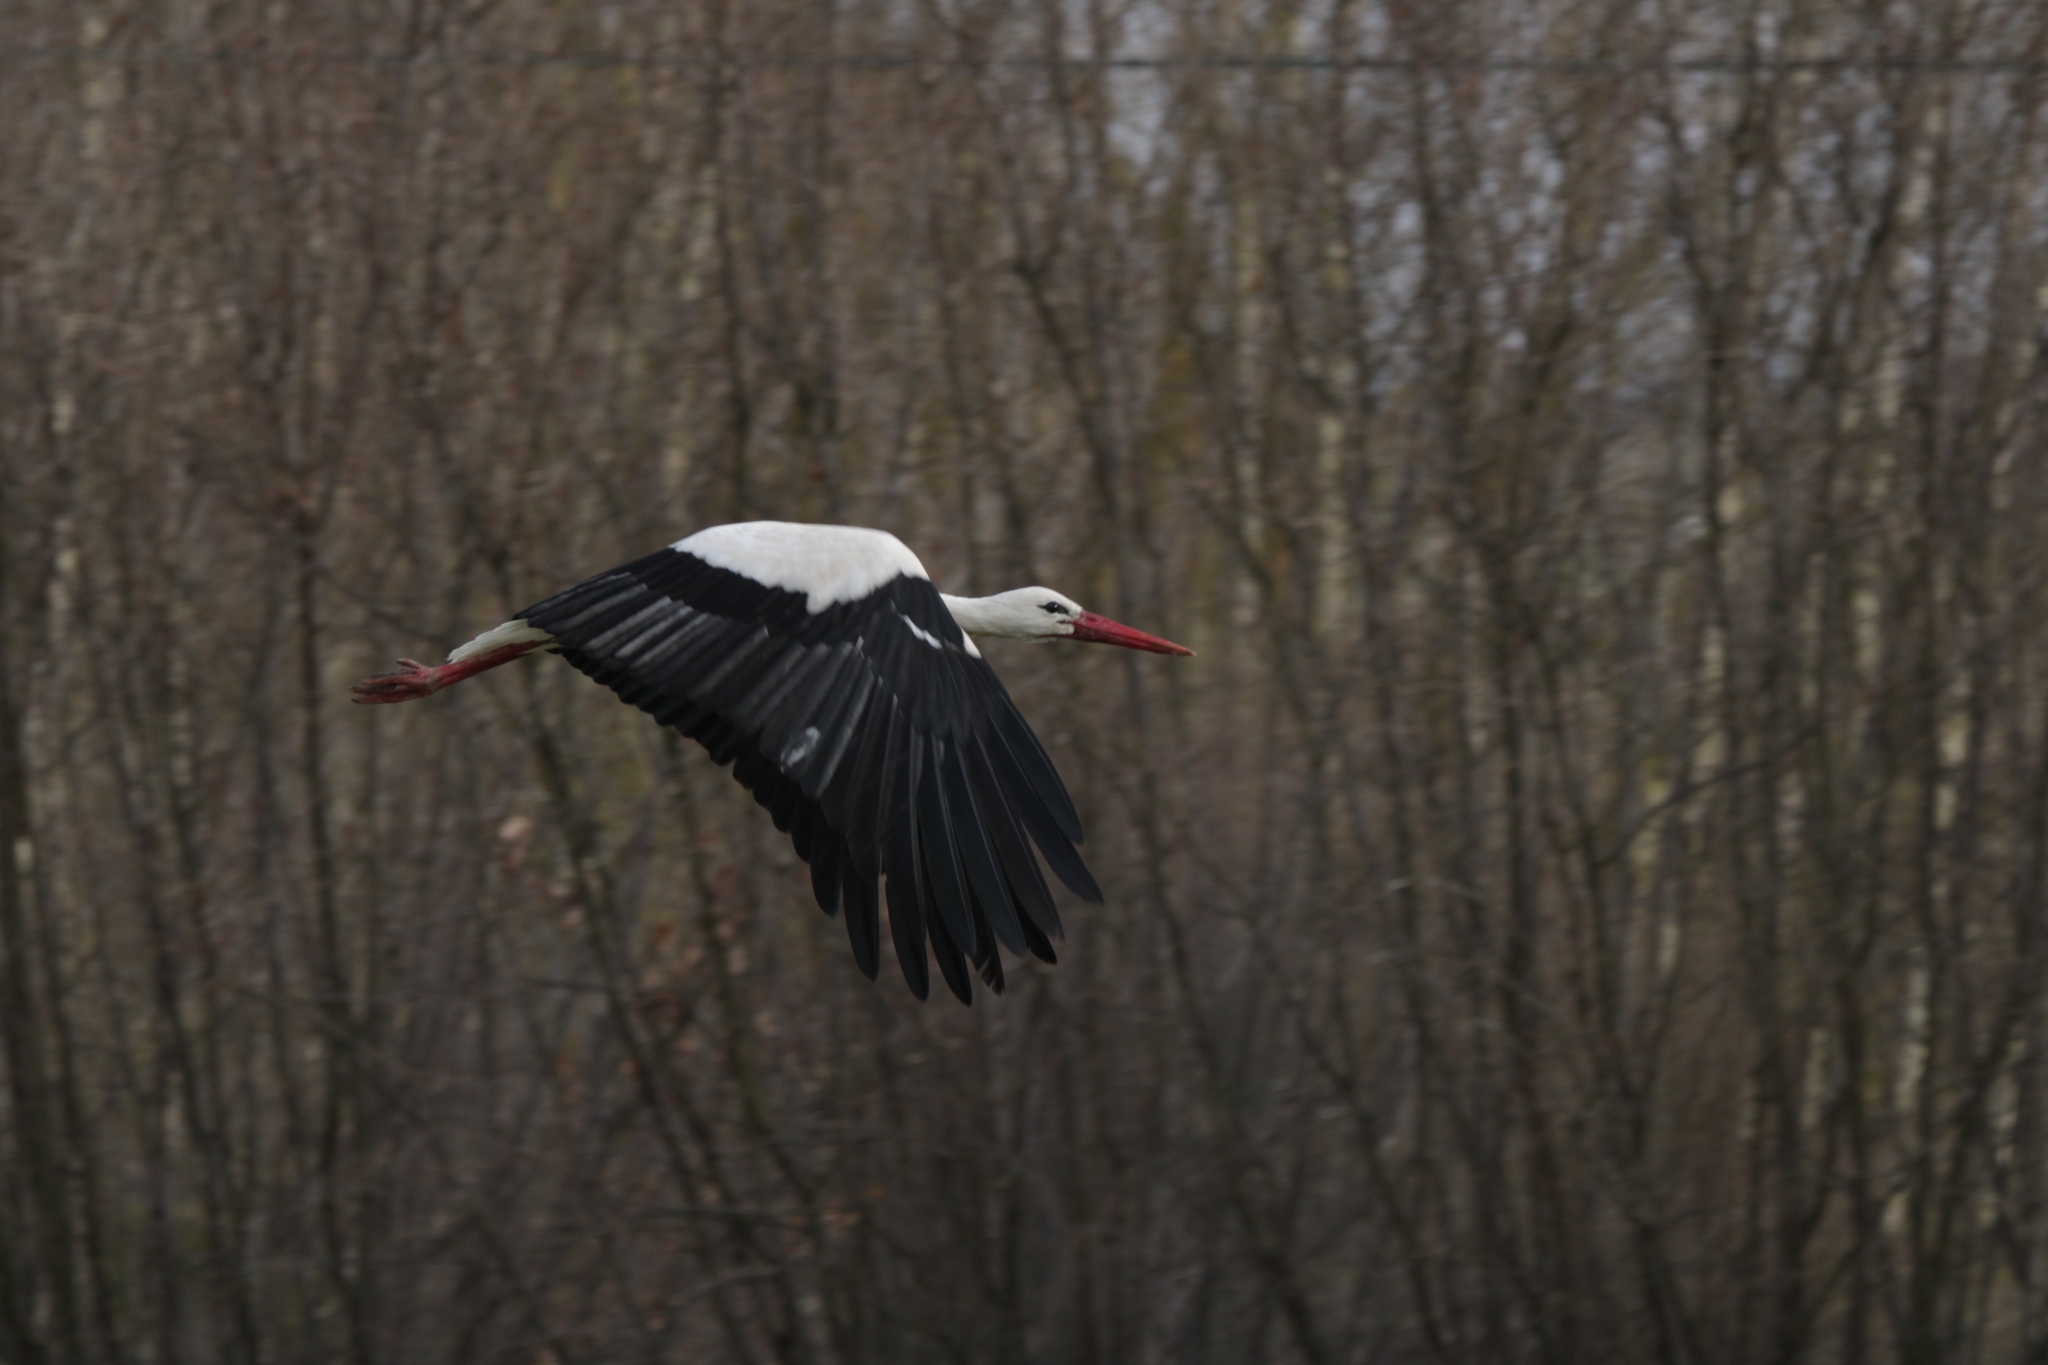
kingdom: Animalia
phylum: Chordata
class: Aves
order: Ciconiiformes
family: Ciconiidae
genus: Ciconia
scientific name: Ciconia ciconia
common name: White stork
